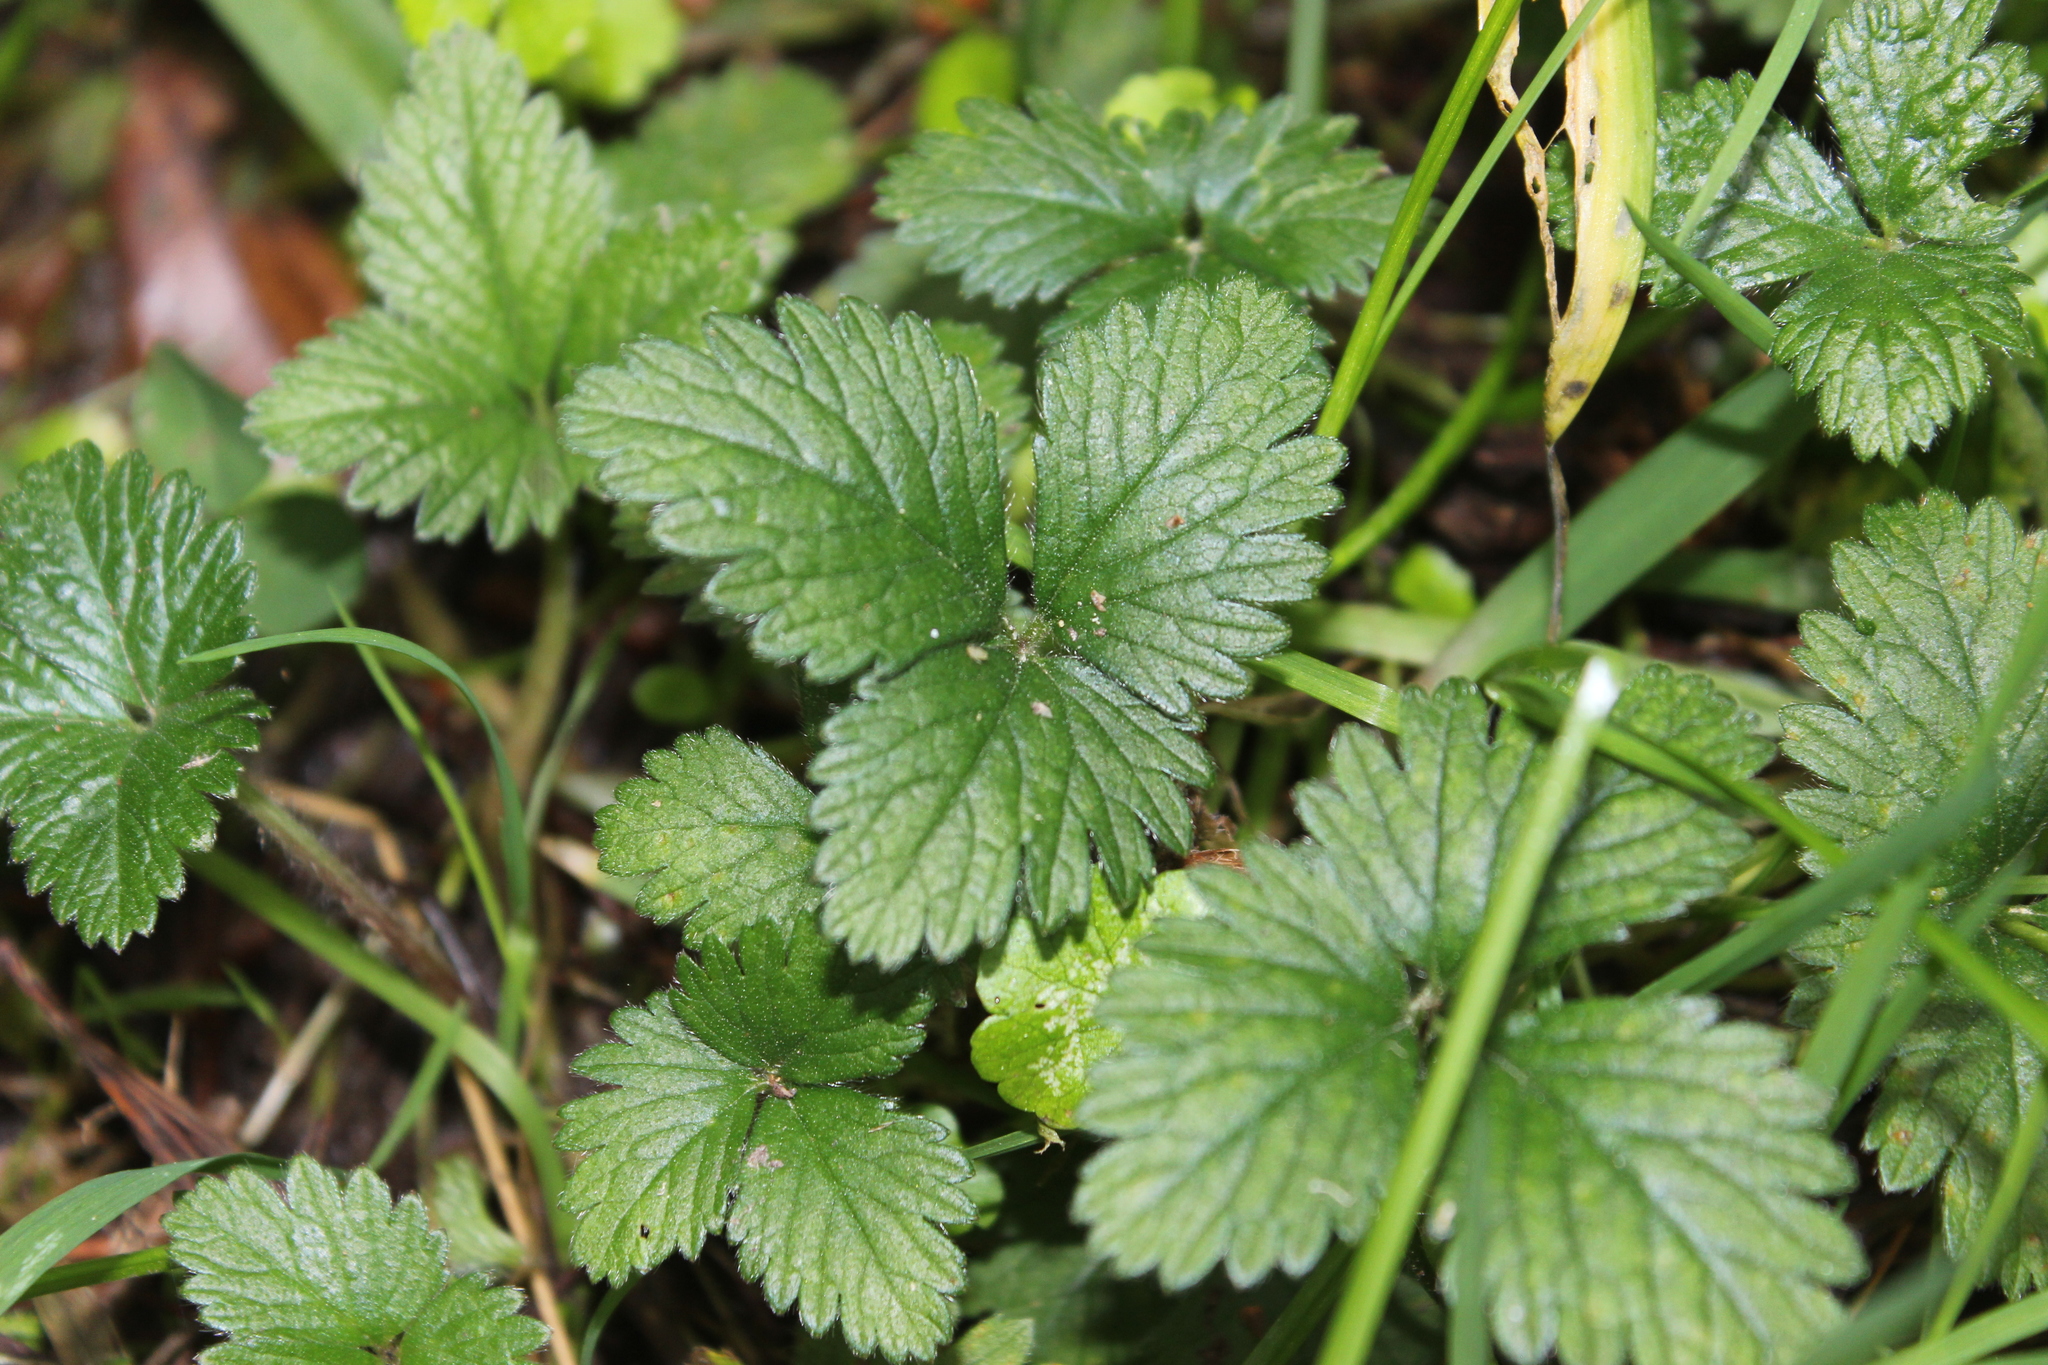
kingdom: Plantae
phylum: Tracheophyta
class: Magnoliopsida
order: Rosales
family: Rosaceae
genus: Potentilla
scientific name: Potentilla indica
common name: Yellow-flowered strawberry
